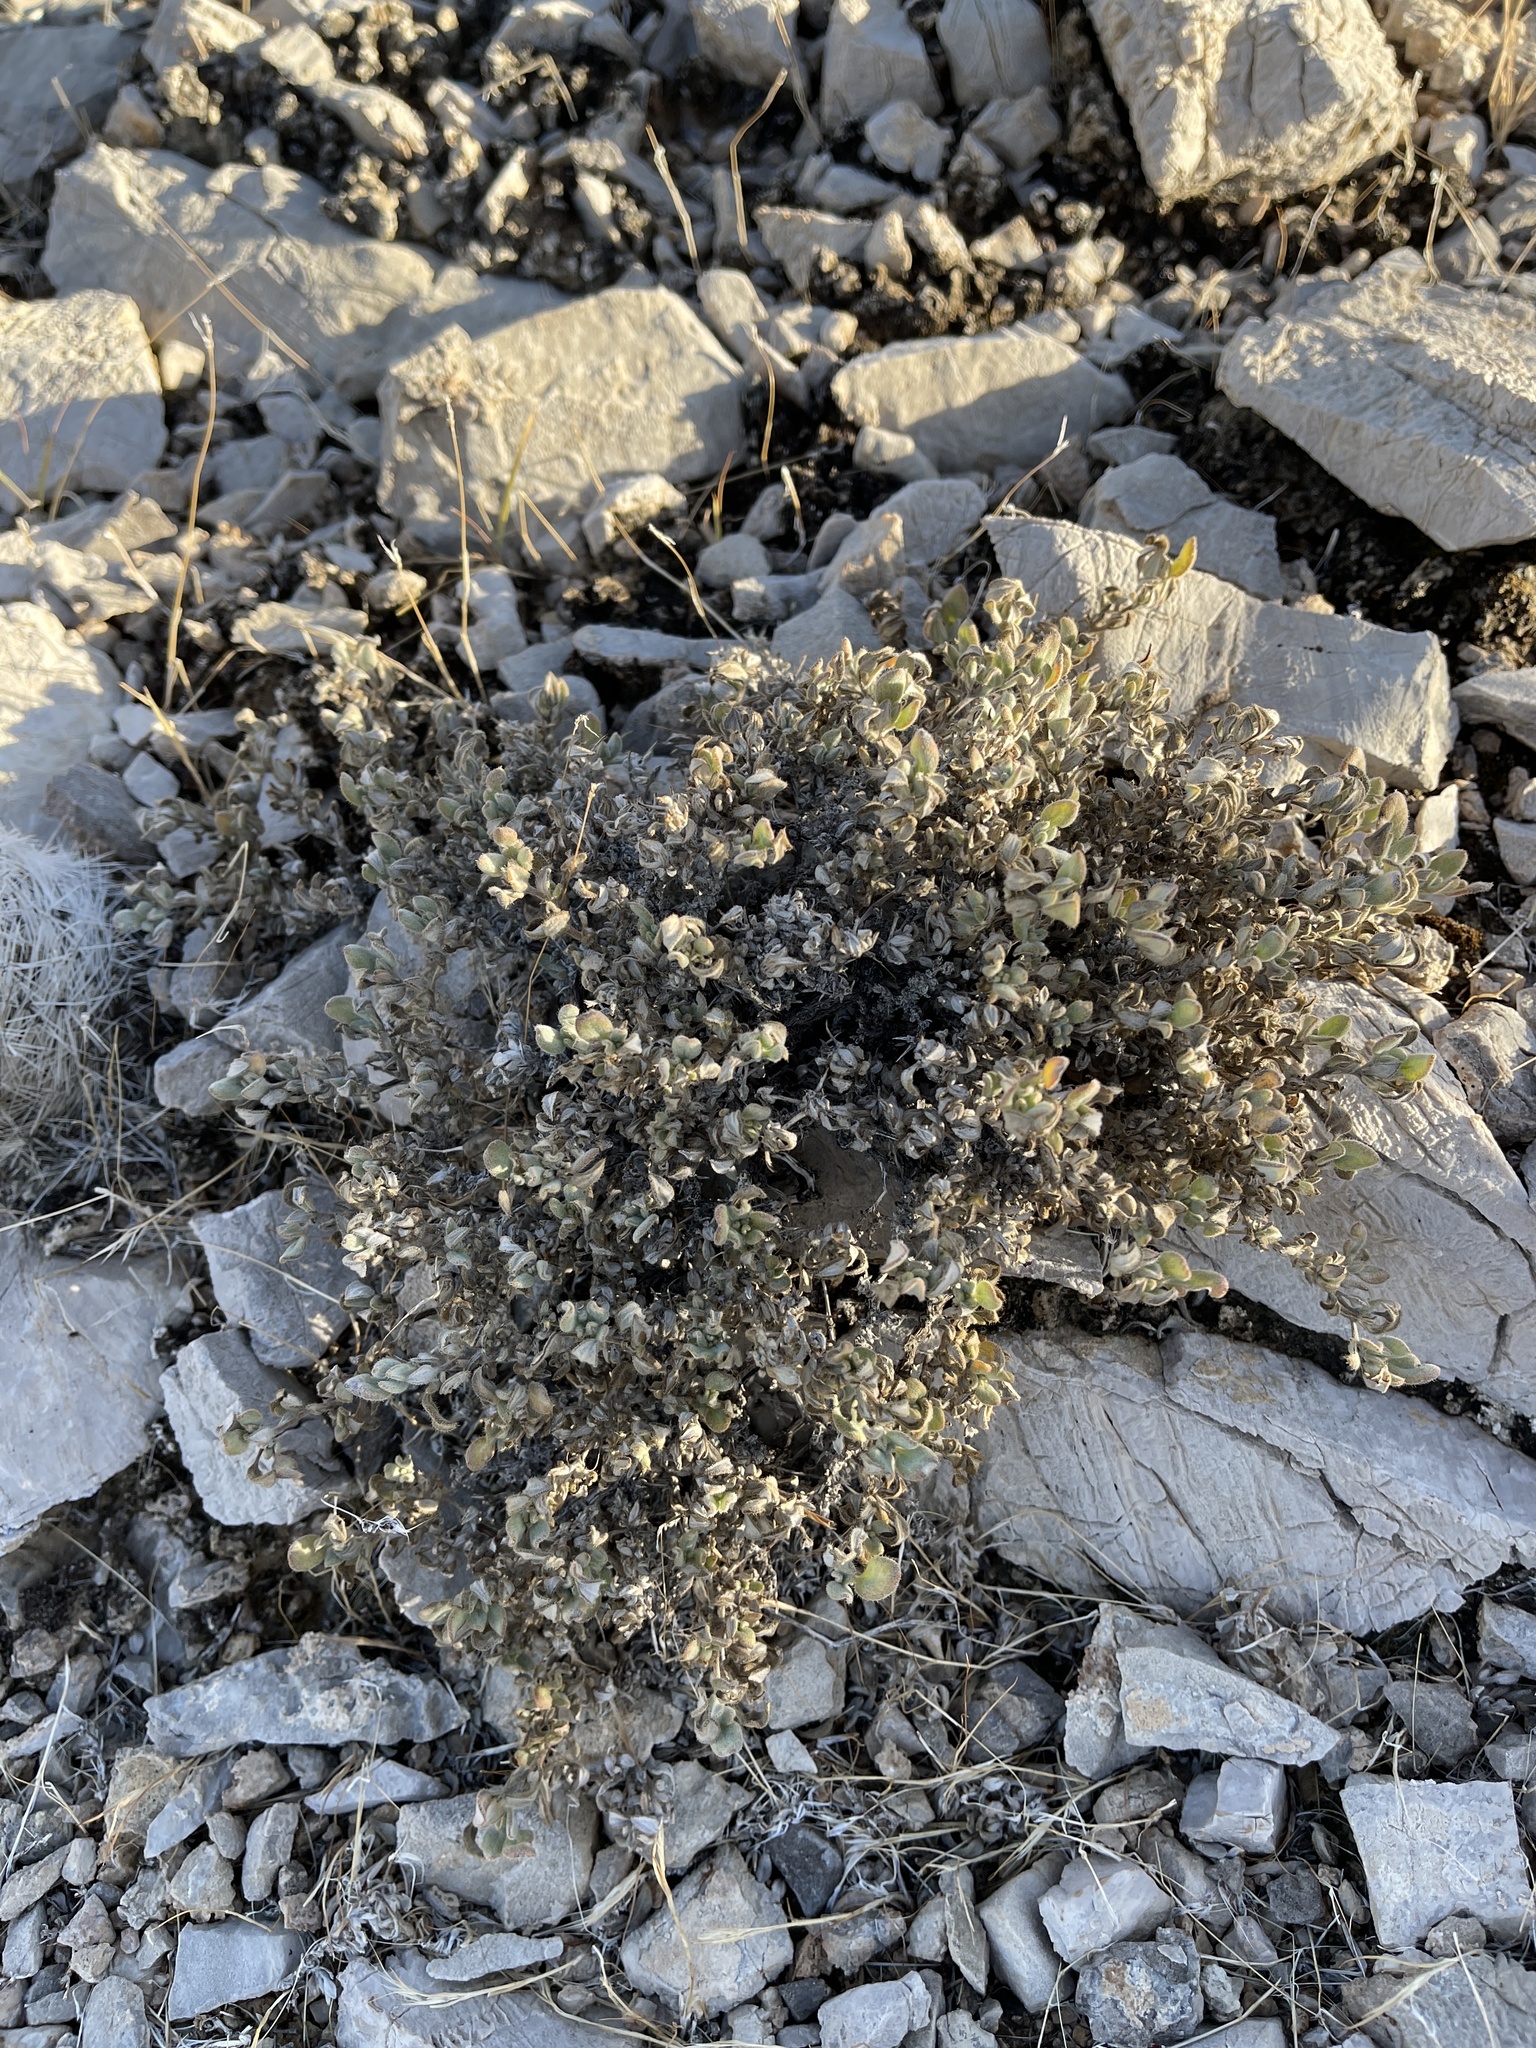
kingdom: Plantae
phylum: Tracheophyta
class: Magnoliopsida
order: Boraginales
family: Ehretiaceae
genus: Tiquilia
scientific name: Tiquilia canescens
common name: Hairy tiquilia
